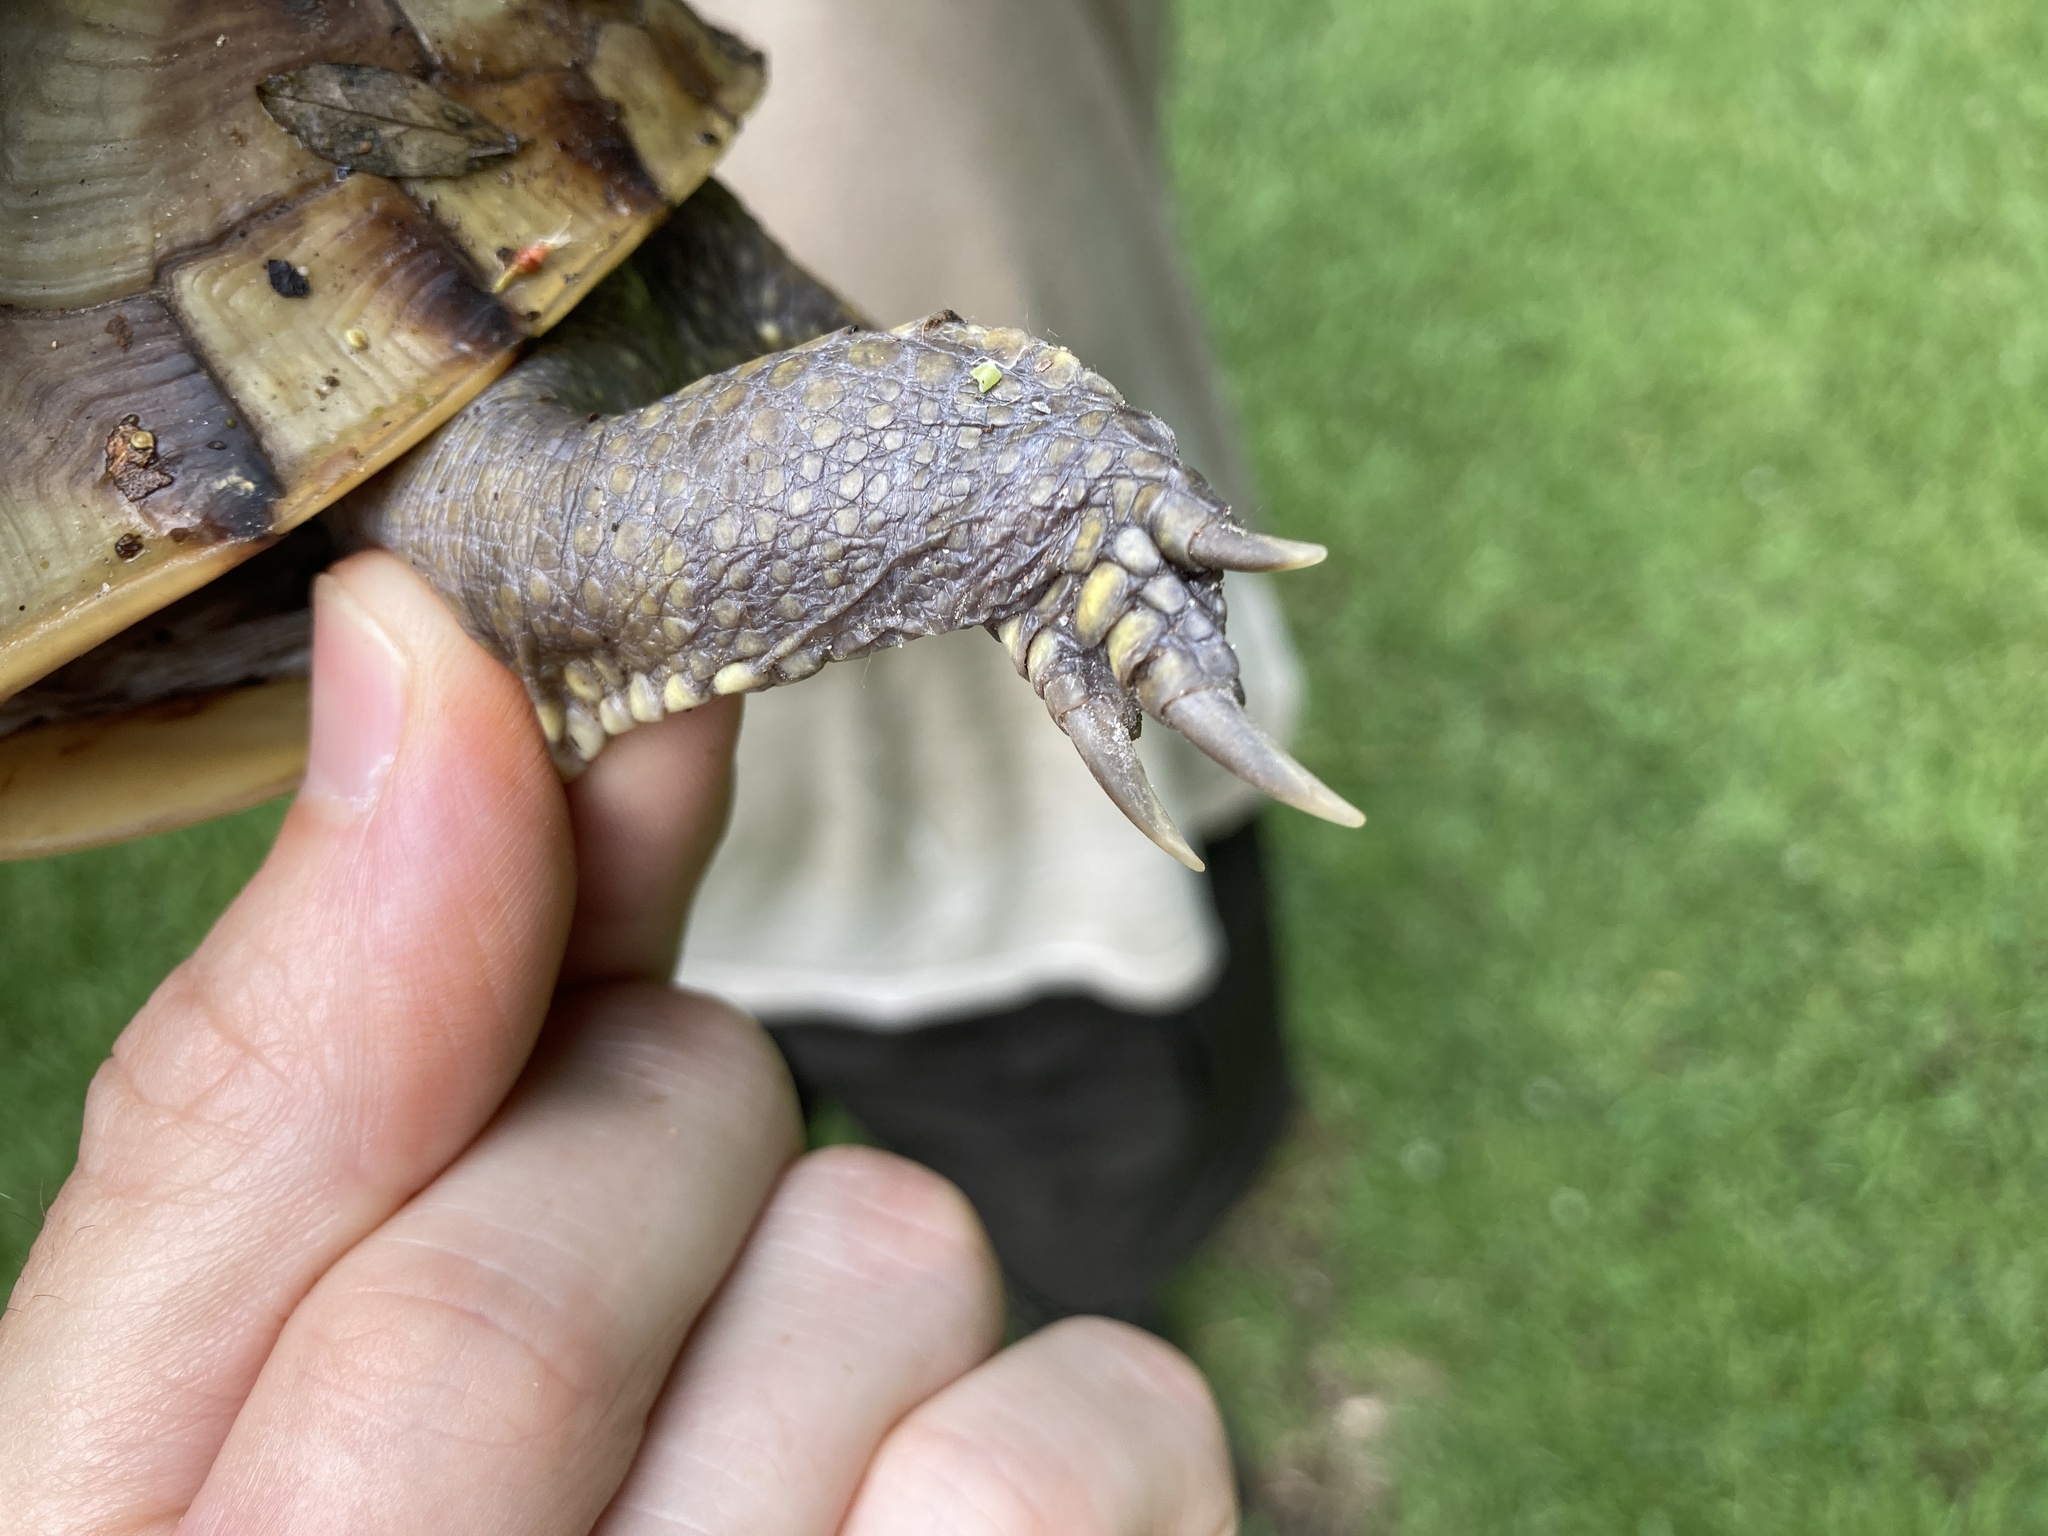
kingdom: Animalia
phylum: Chordata
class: Testudines
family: Emydidae
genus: Terrapene
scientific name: Terrapene carolina
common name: Common box turtle
